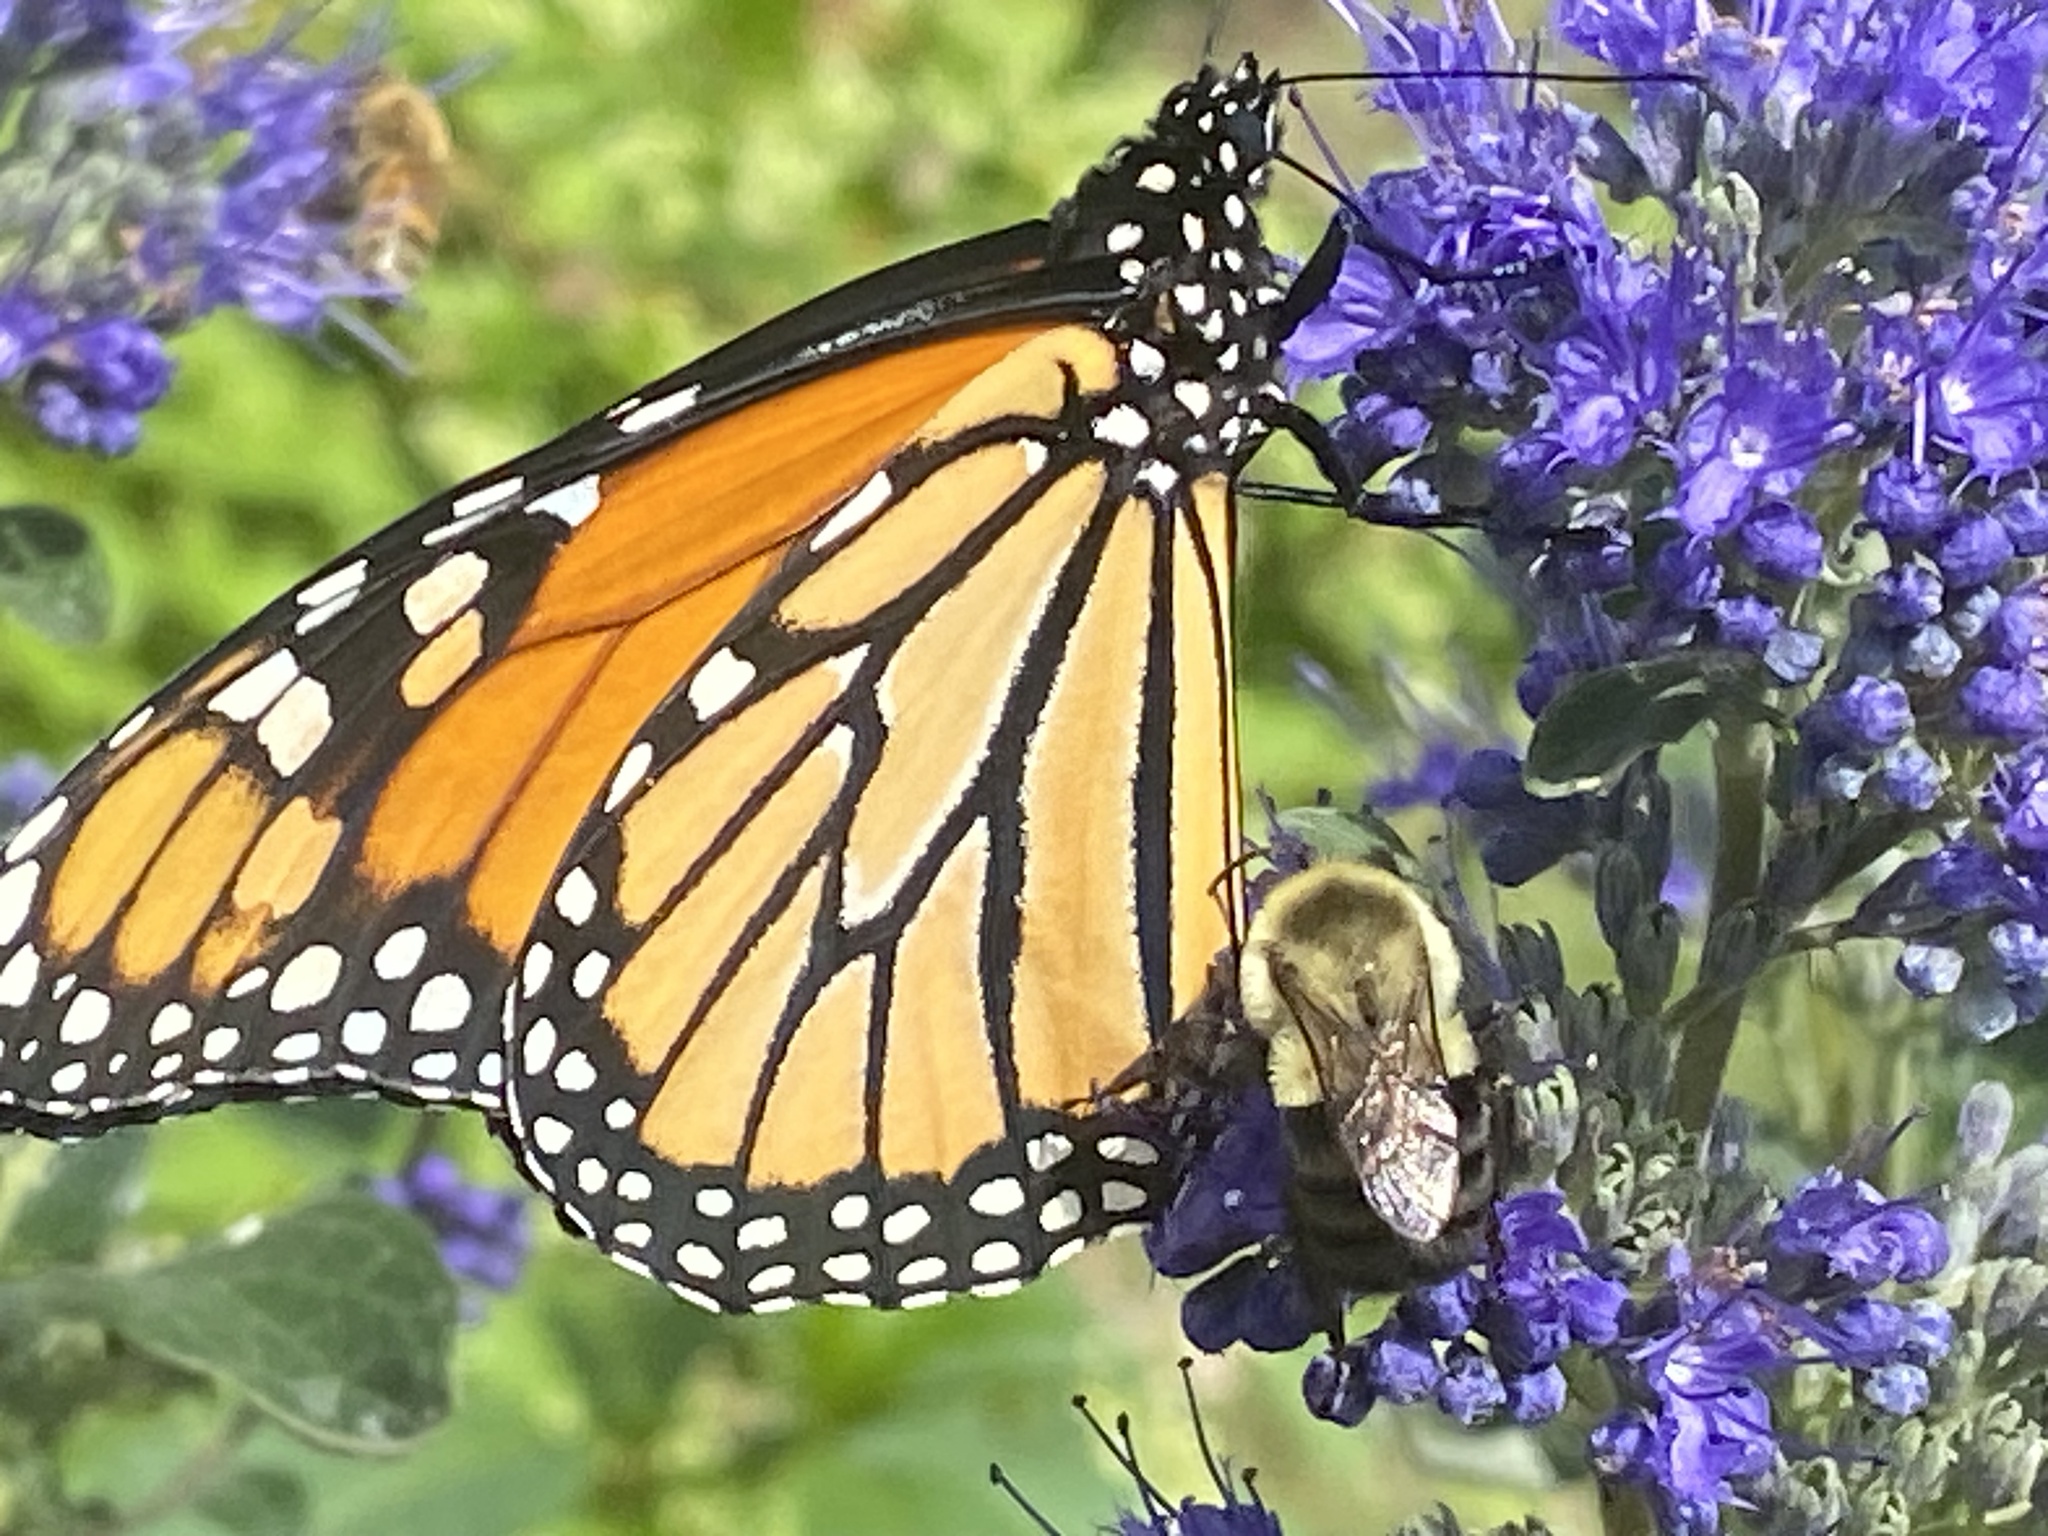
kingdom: Animalia
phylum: Arthropoda
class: Insecta
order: Lepidoptera
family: Nymphalidae
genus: Danaus
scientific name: Danaus plexippus
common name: Monarch
